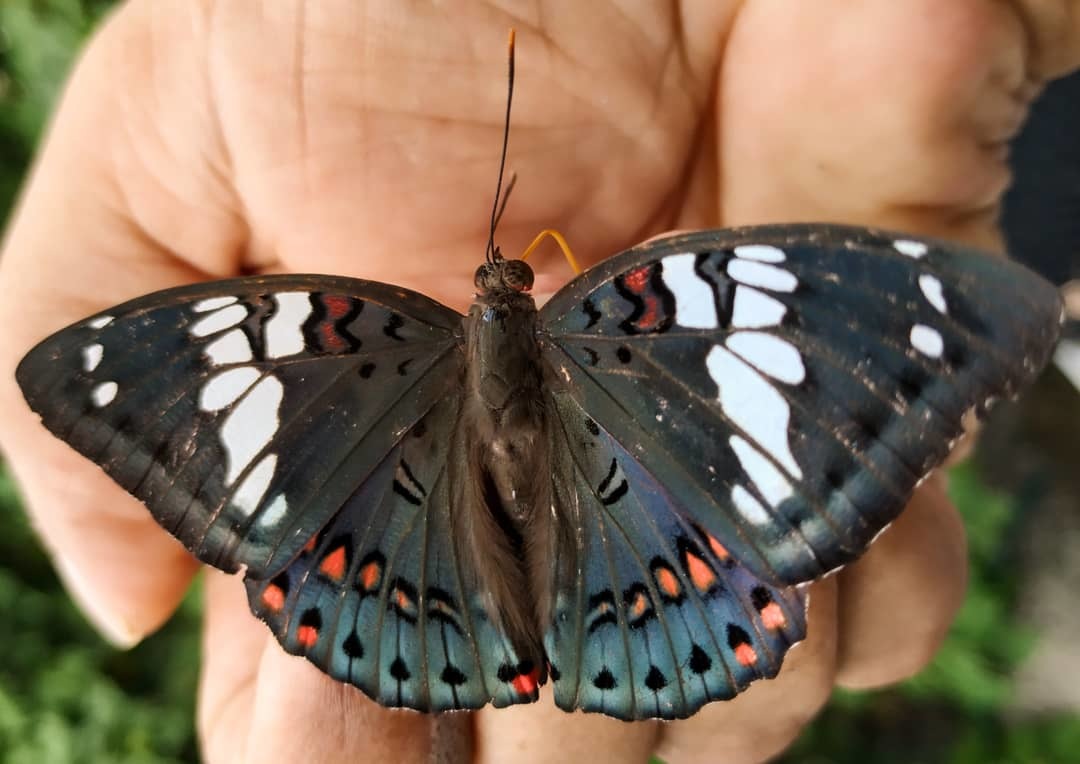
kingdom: Animalia
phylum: Arthropoda
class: Insecta
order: Lepidoptera
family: Nymphalidae
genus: Euthalia
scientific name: Euthalia lubentina
